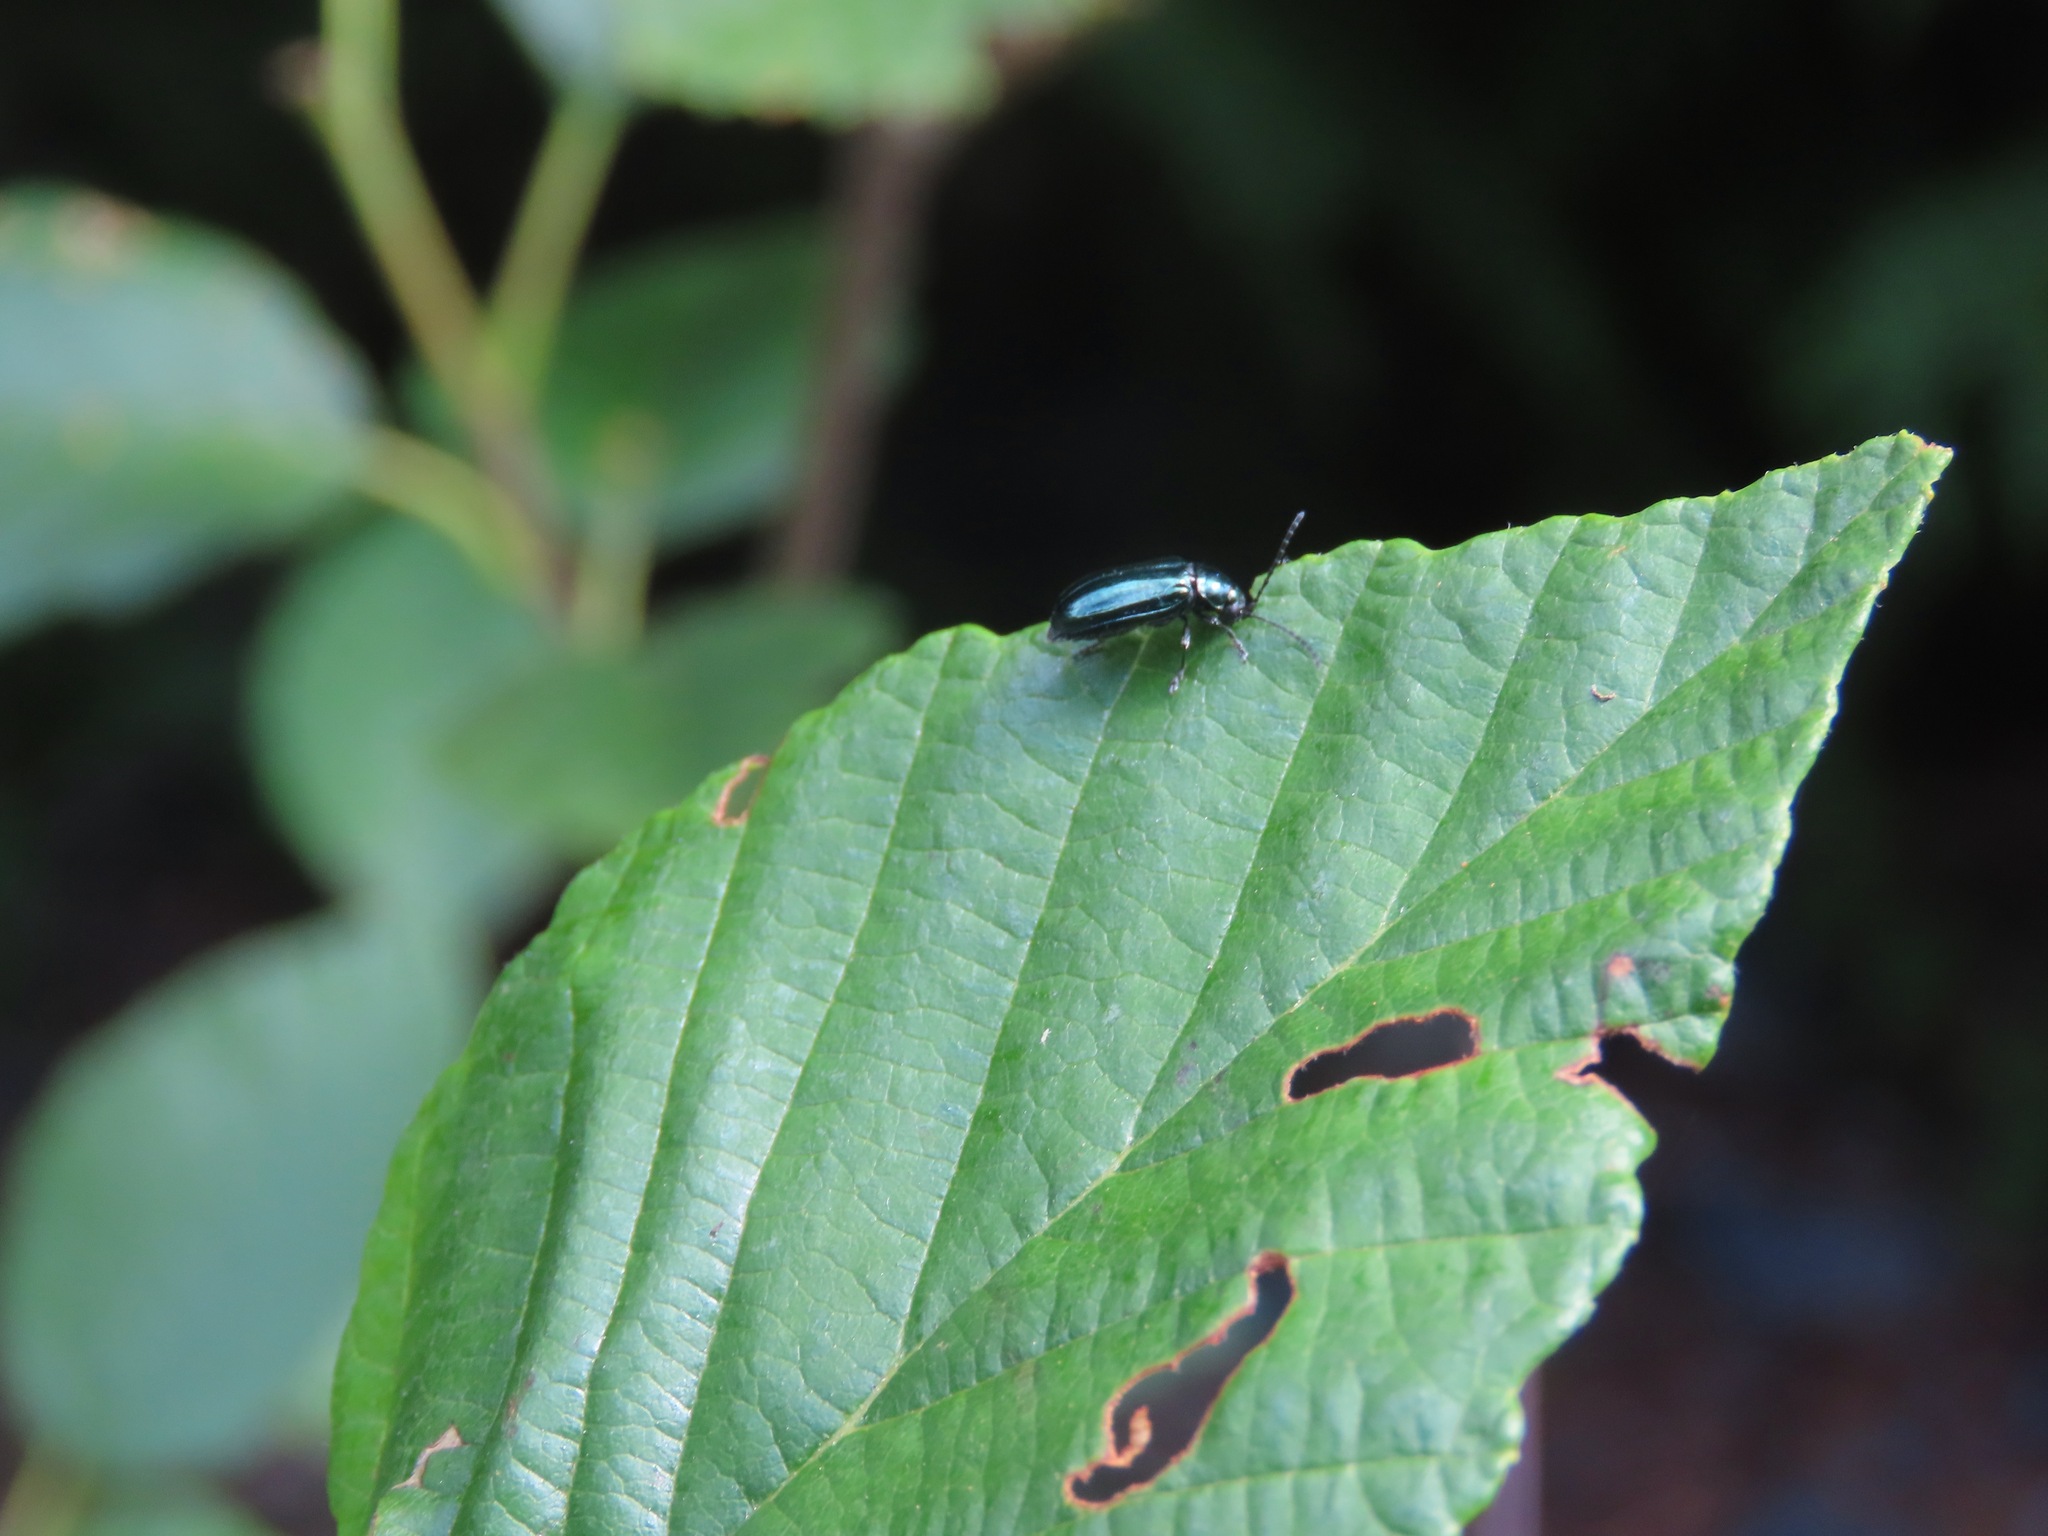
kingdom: Animalia
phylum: Arthropoda
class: Insecta
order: Coleoptera
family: Chrysomelidae
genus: Altica
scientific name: Altica ambiens
